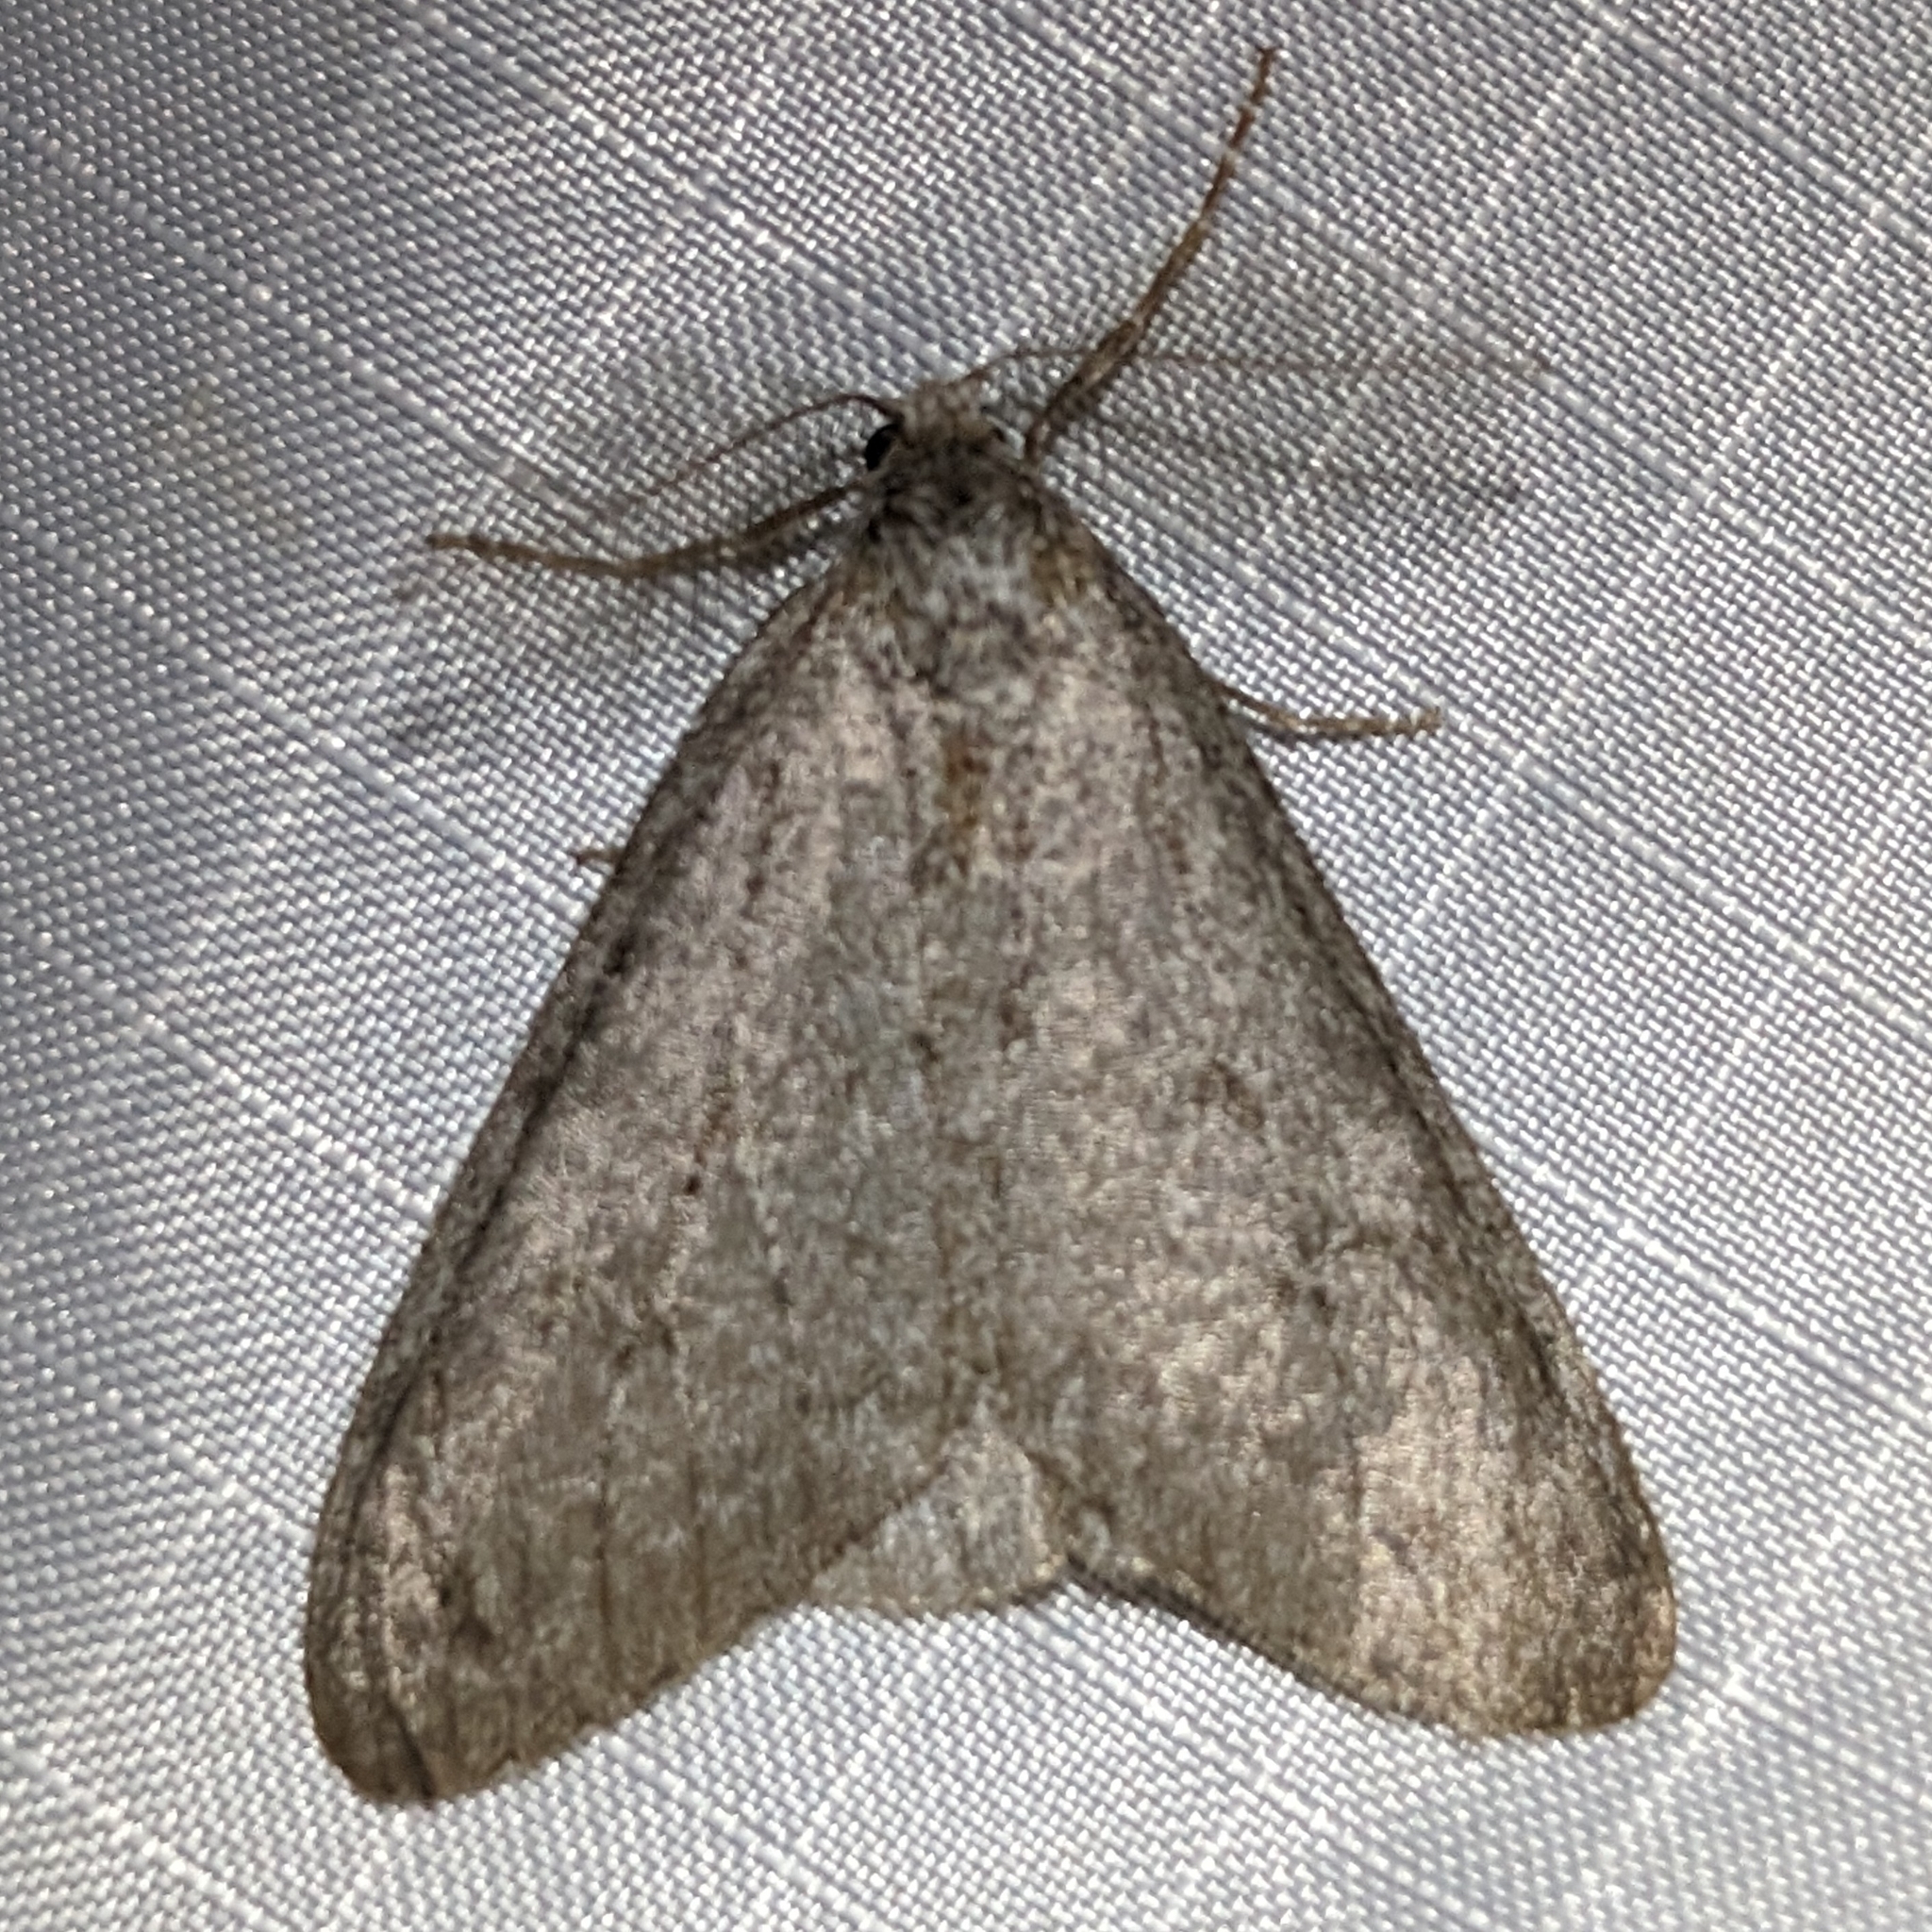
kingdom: Animalia
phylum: Arthropoda
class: Insecta
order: Lepidoptera
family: Geometridae
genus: Phigalia
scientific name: Phigalia plumogeraria
